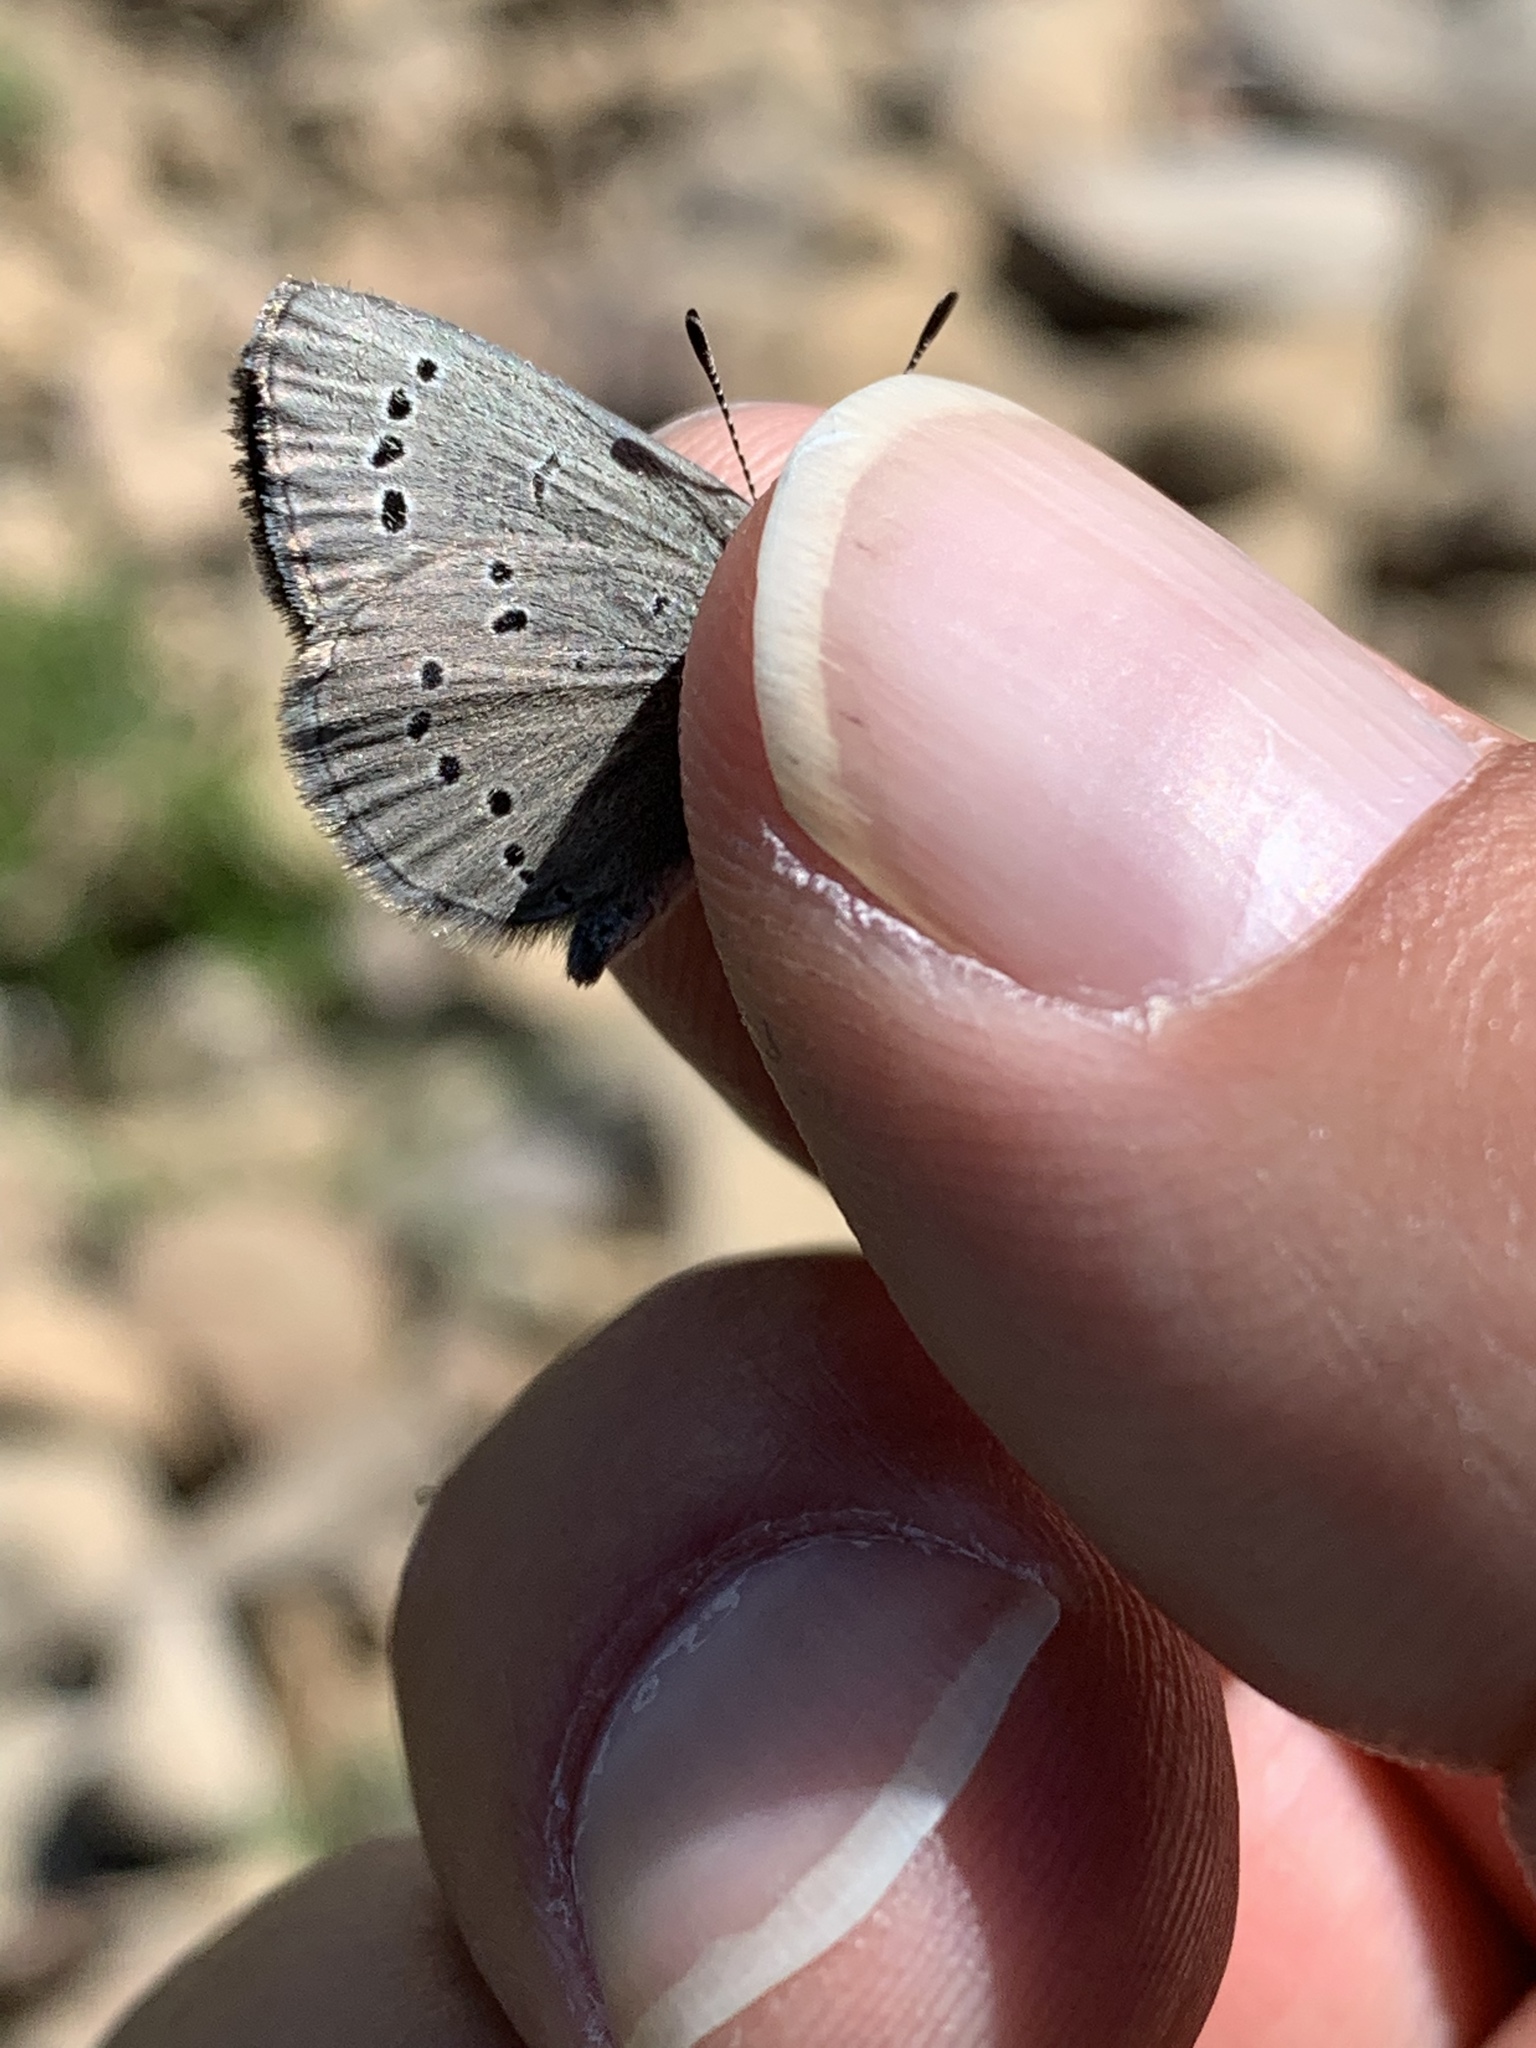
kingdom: Animalia
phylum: Arthropoda
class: Insecta
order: Lepidoptera
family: Lycaenidae
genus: Glaucopsyche
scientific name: Glaucopsyche lygdamus
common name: Silvery blue
